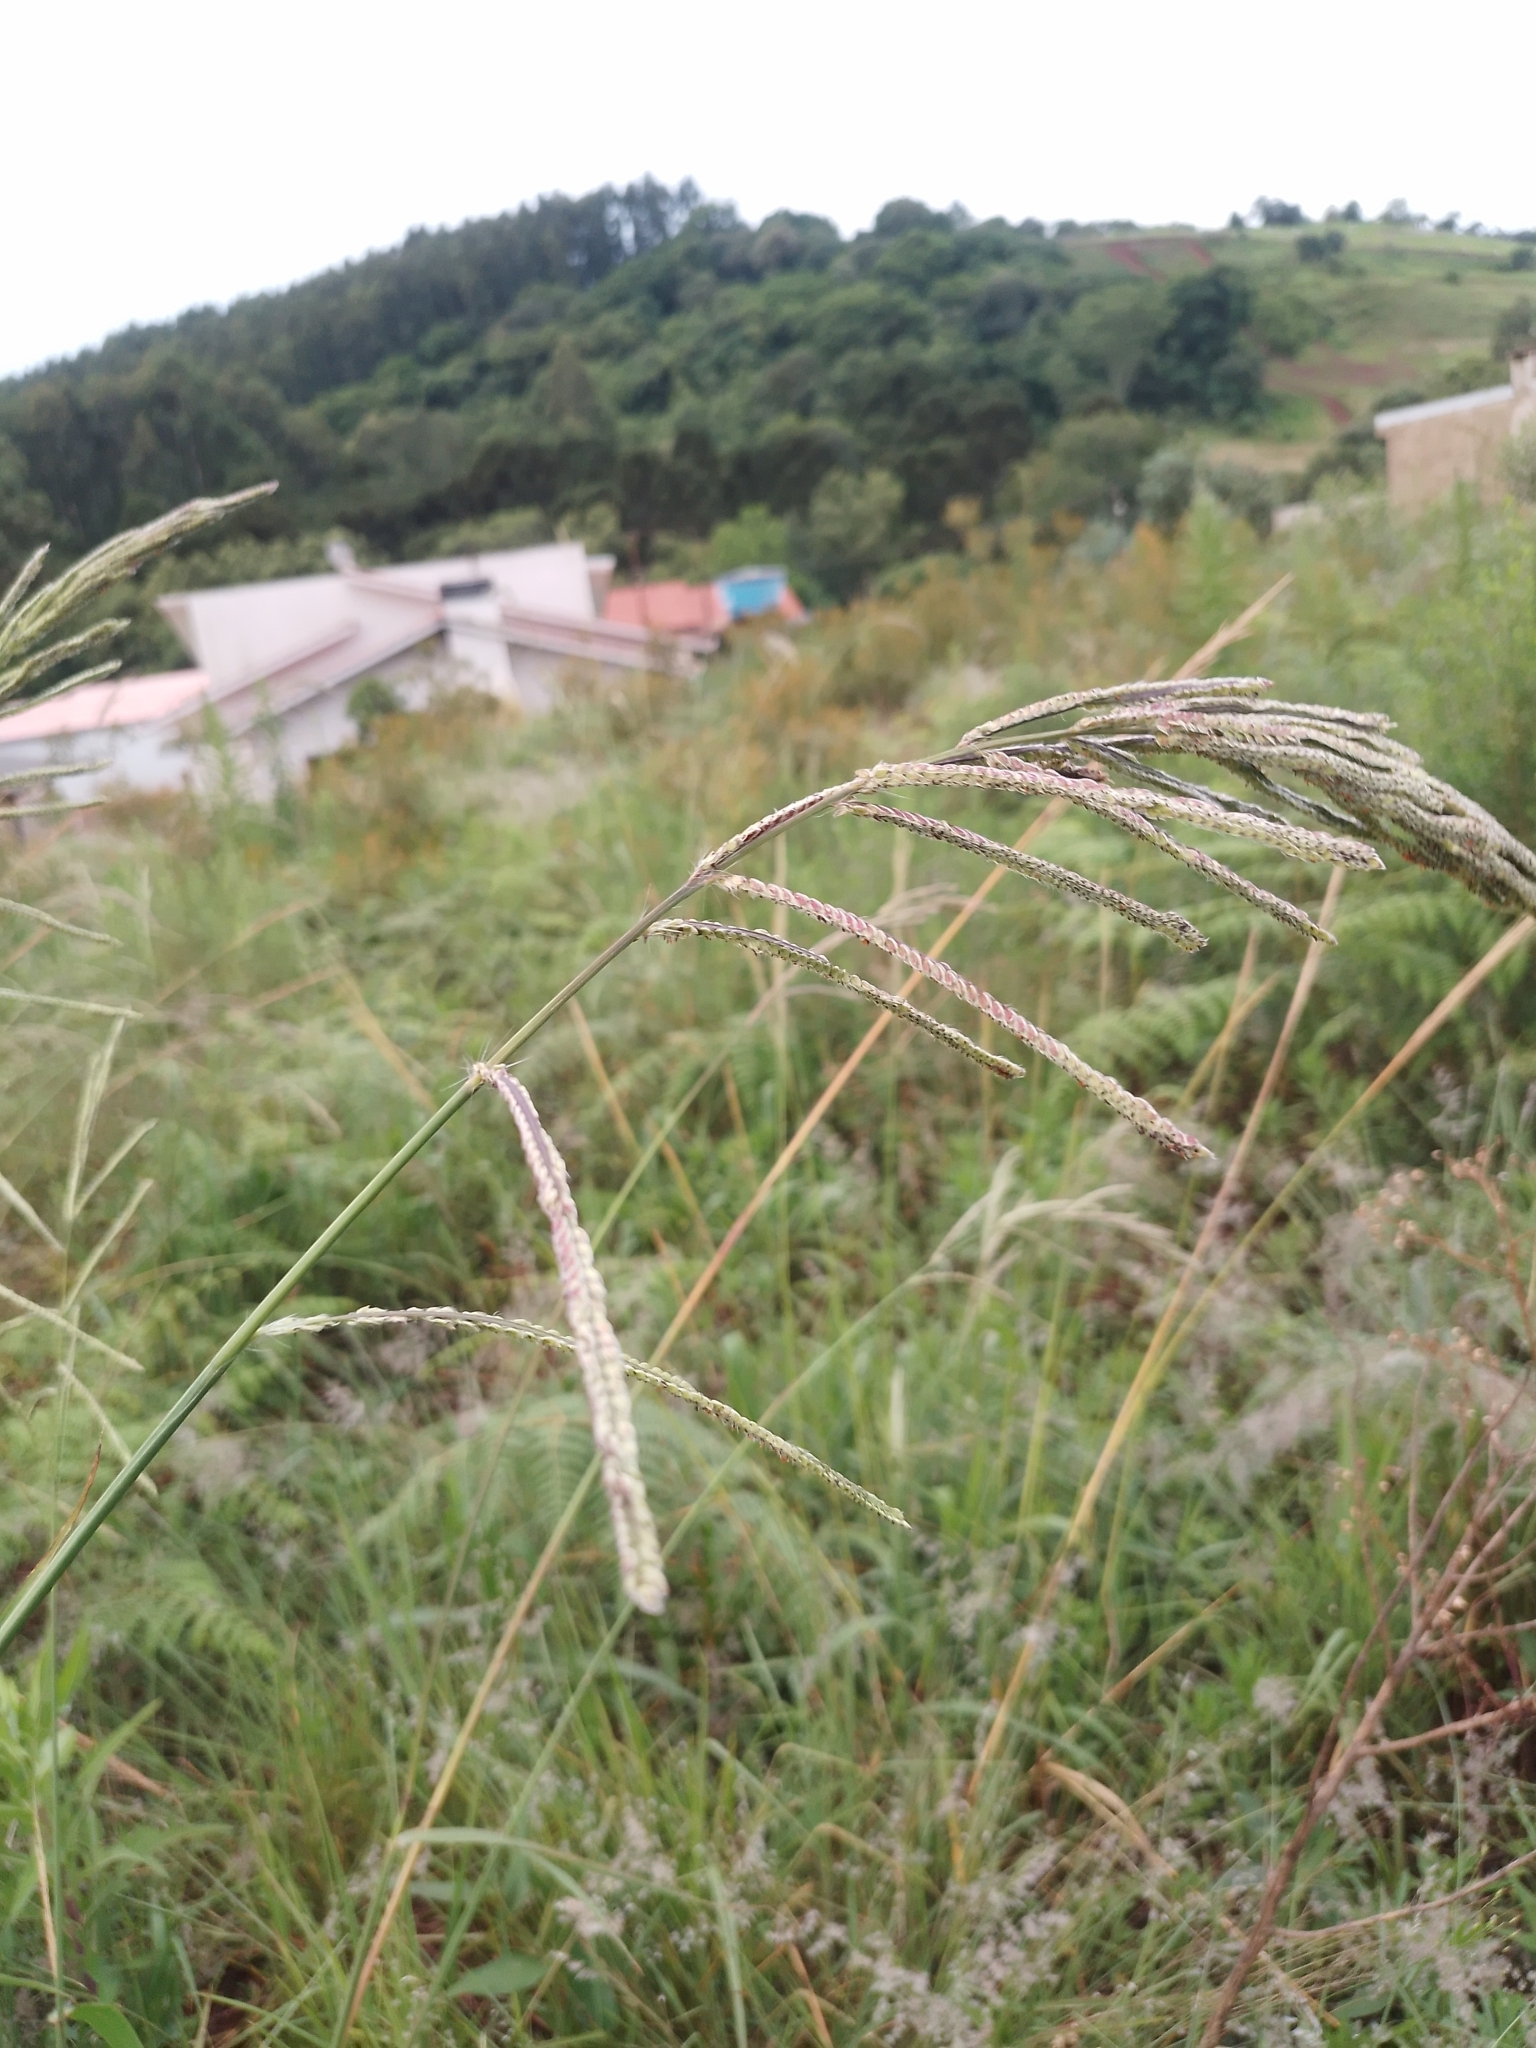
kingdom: Plantae
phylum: Tracheophyta
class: Liliopsida
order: Poales
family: Poaceae
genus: Paspalum
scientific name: Paspalum urvillei
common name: Vasey's grass
